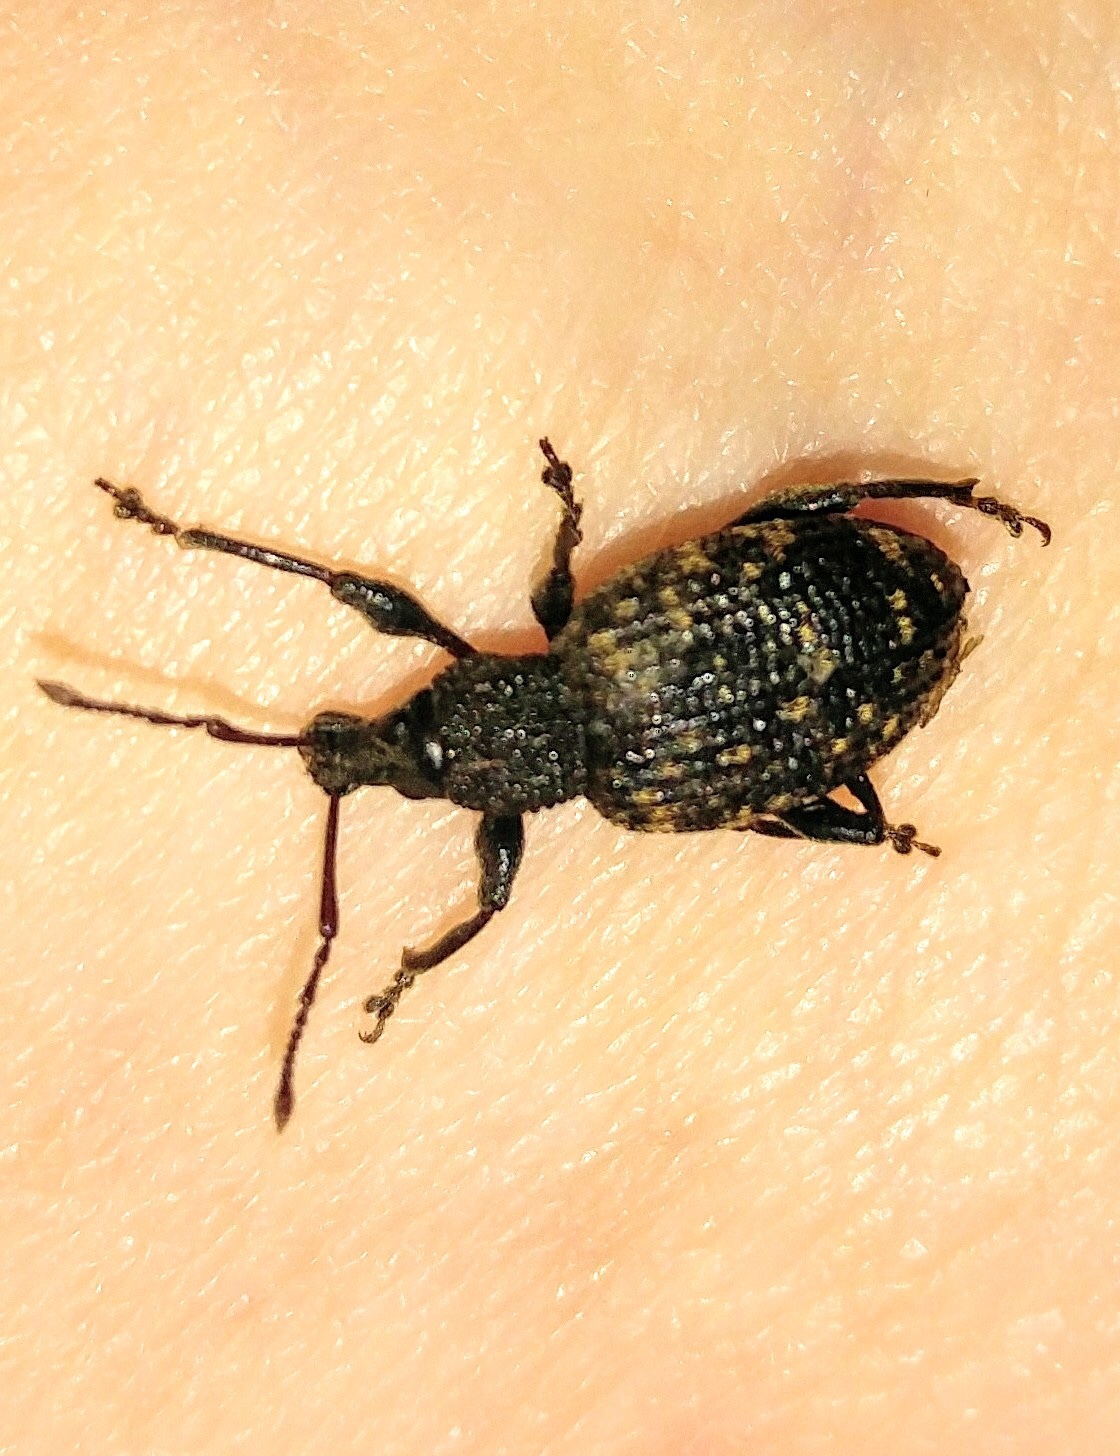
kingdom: Animalia
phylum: Arthropoda
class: Insecta
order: Coleoptera
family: Curculionidae
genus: Otiorhynchus
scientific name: Otiorhynchus sulcatus
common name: Black vine weevil
